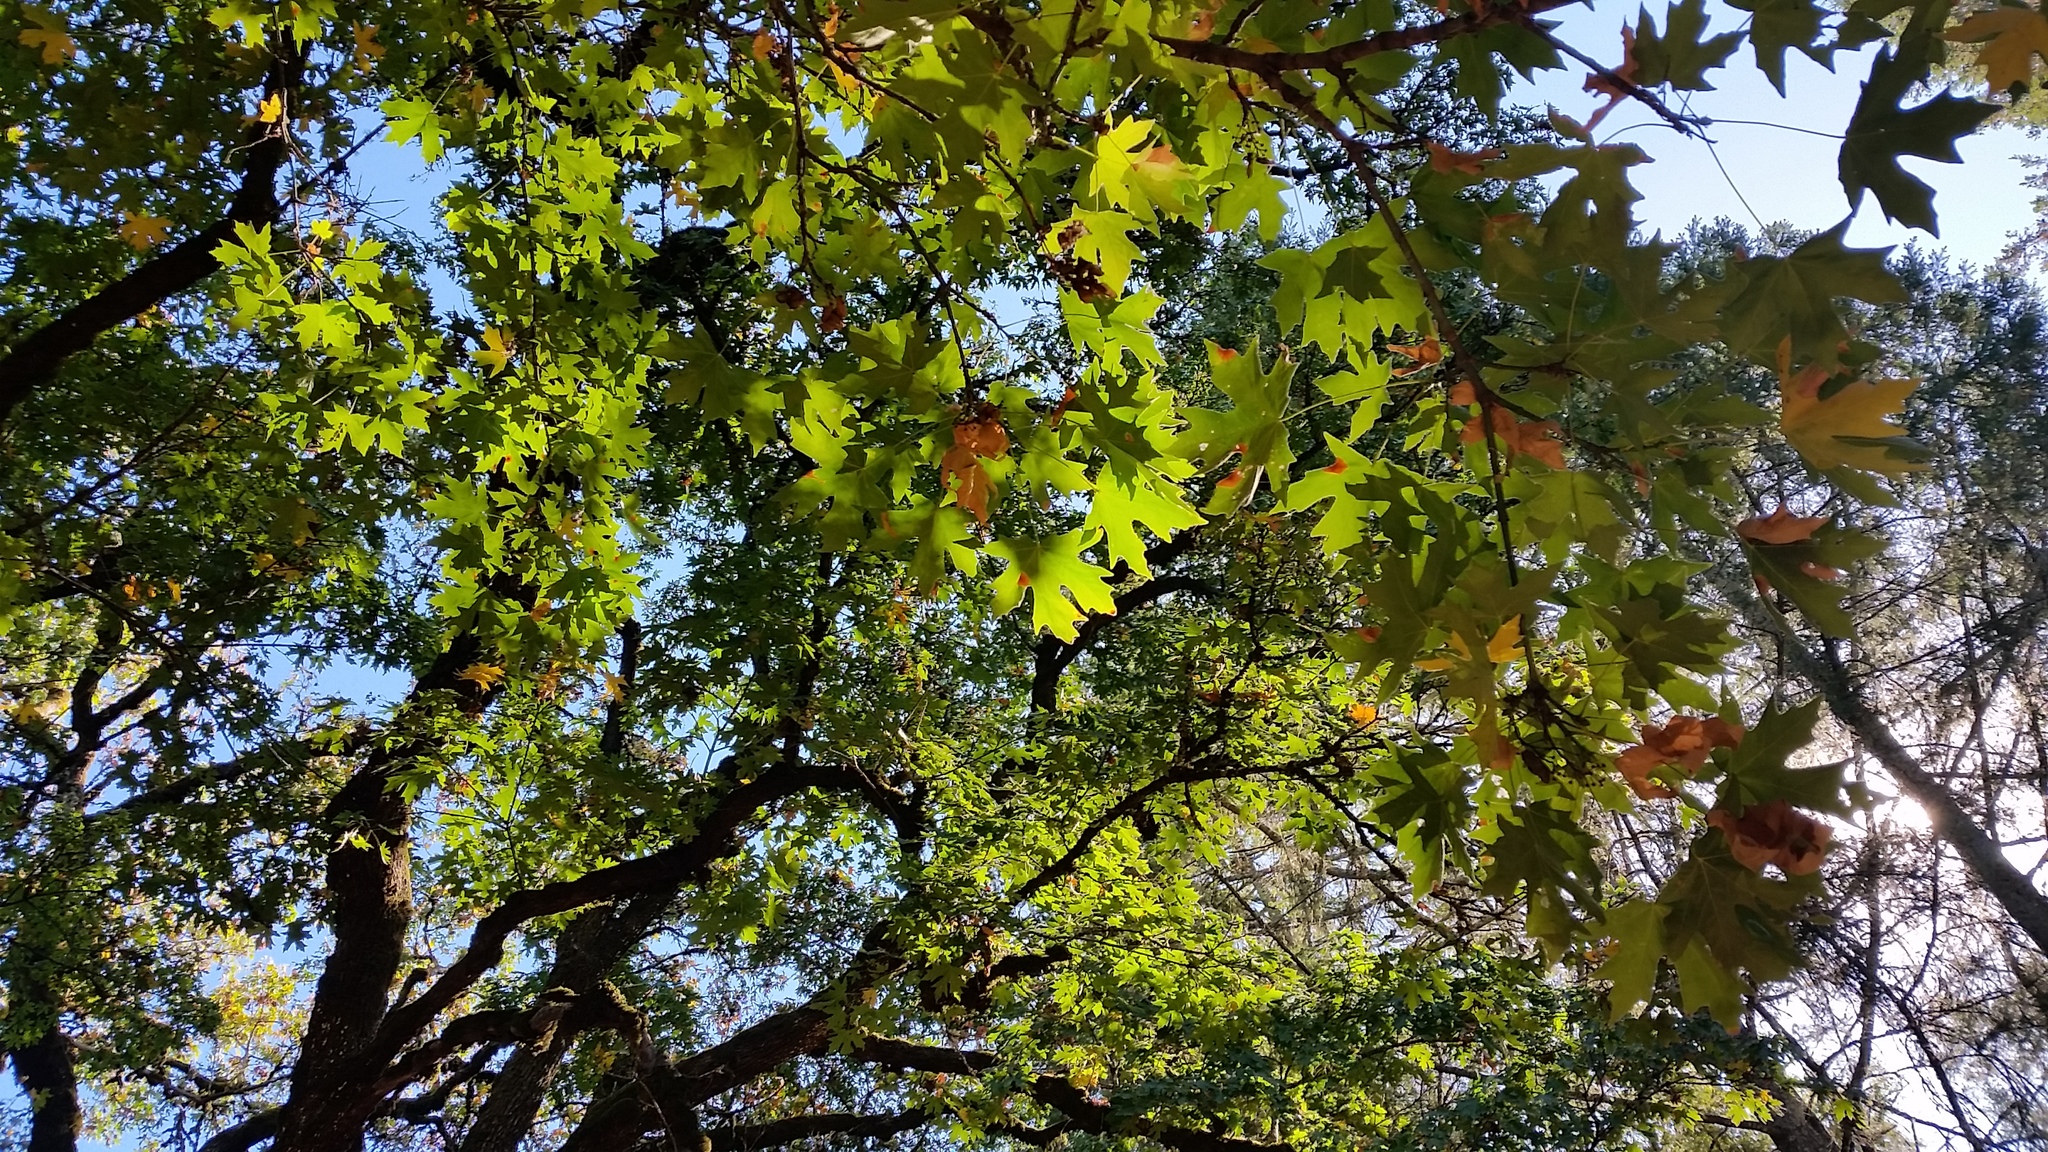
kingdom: Plantae
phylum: Tracheophyta
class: Magnoliopsida
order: Sapindales
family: Sapindaceae
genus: Acer
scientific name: Acer macrophyllum
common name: Oregon maple
